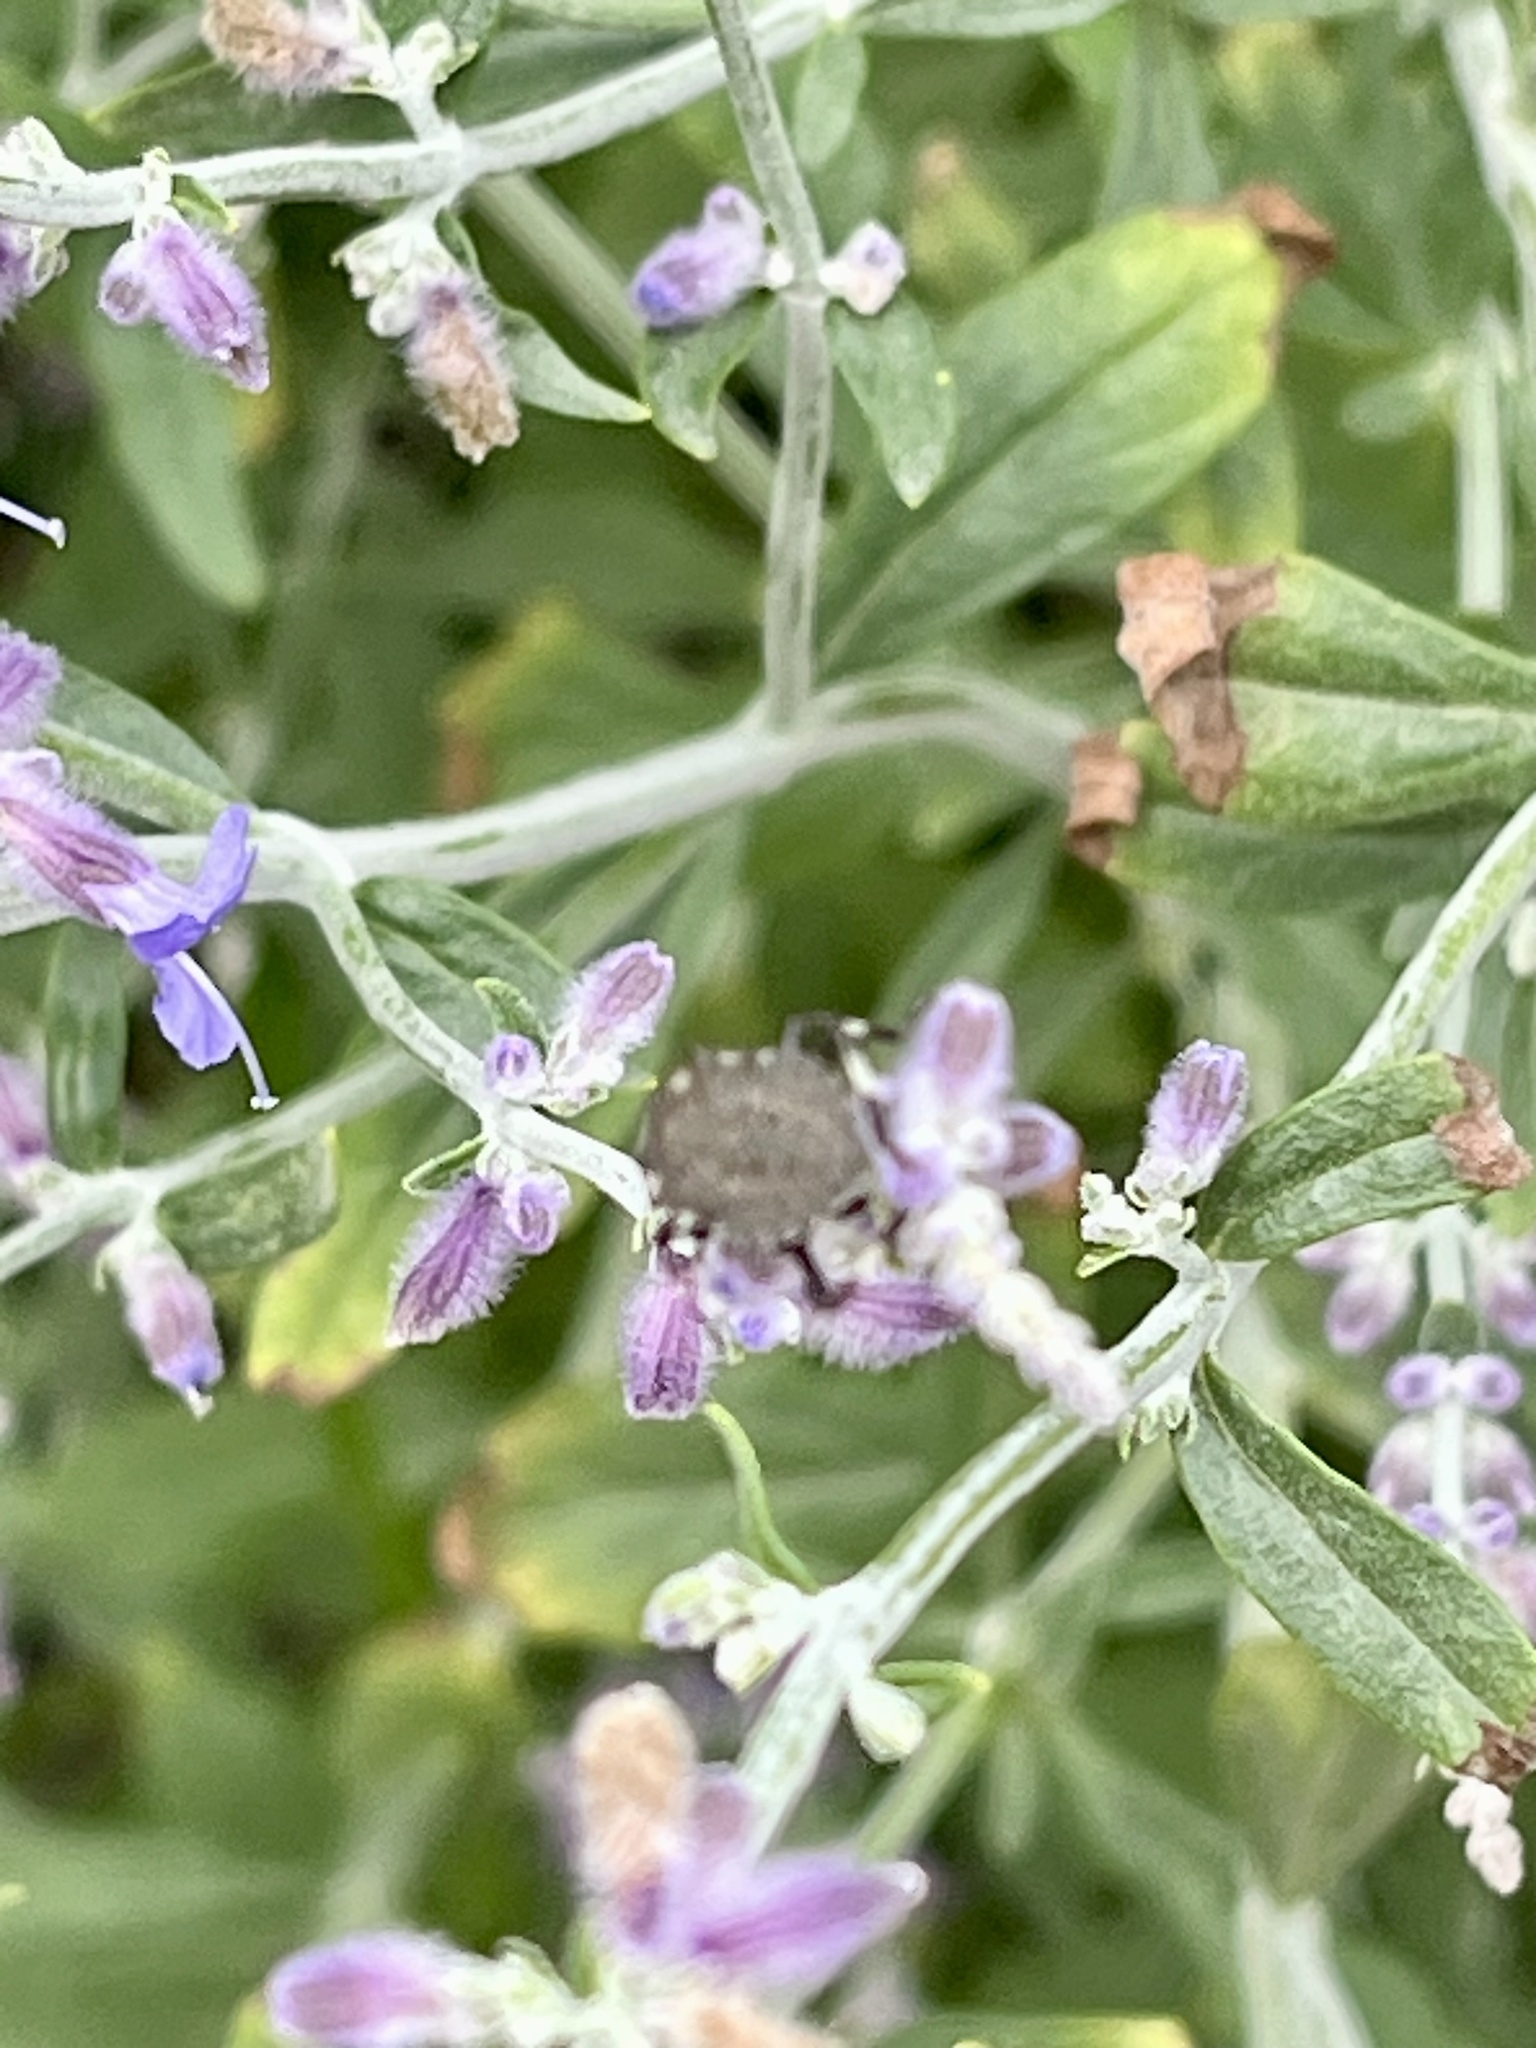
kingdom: Animalia
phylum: Arthropoda
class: Insecta
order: Hemiptera
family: Pentatomidae
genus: Halyomorpha
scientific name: Halyomorpha halys
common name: Brown marmorated stink bug
